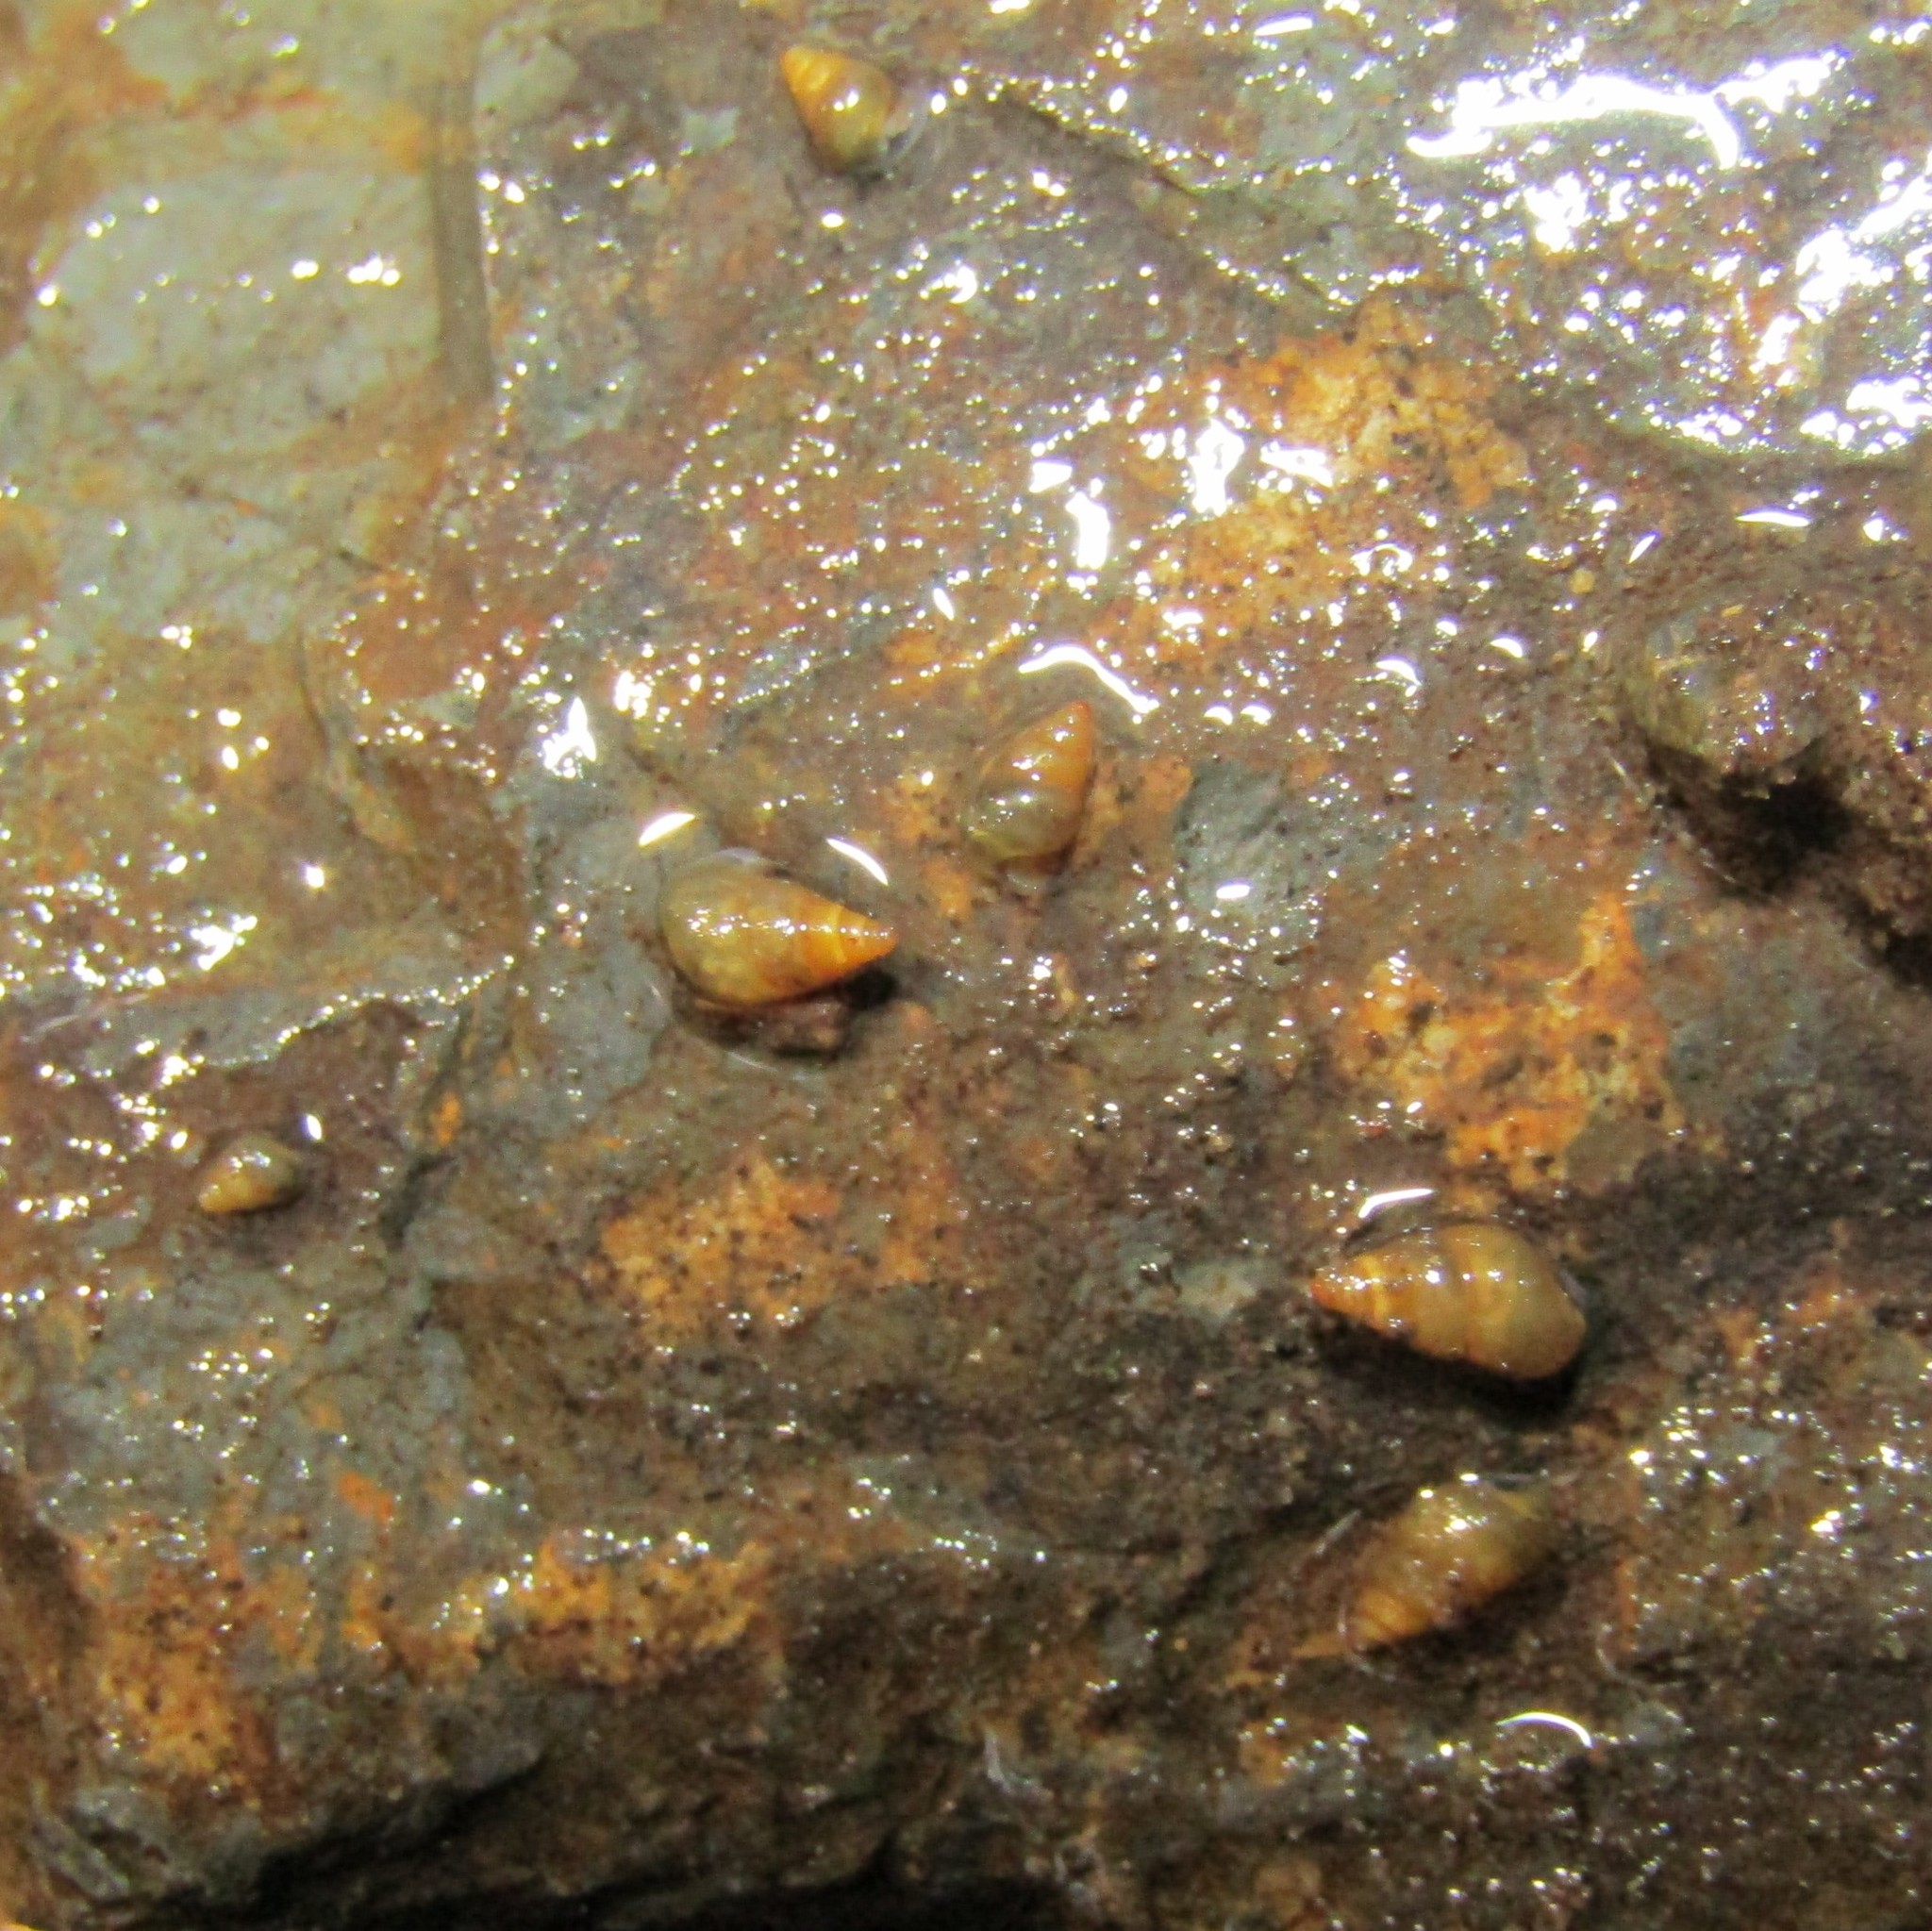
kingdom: Animalia
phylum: Mollusca
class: Gastropoda
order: Littorinimorpha
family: Tateidae
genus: Potamopyrgus
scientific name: Potamopyrgus antipodarum
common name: Jenkins' spire snail
